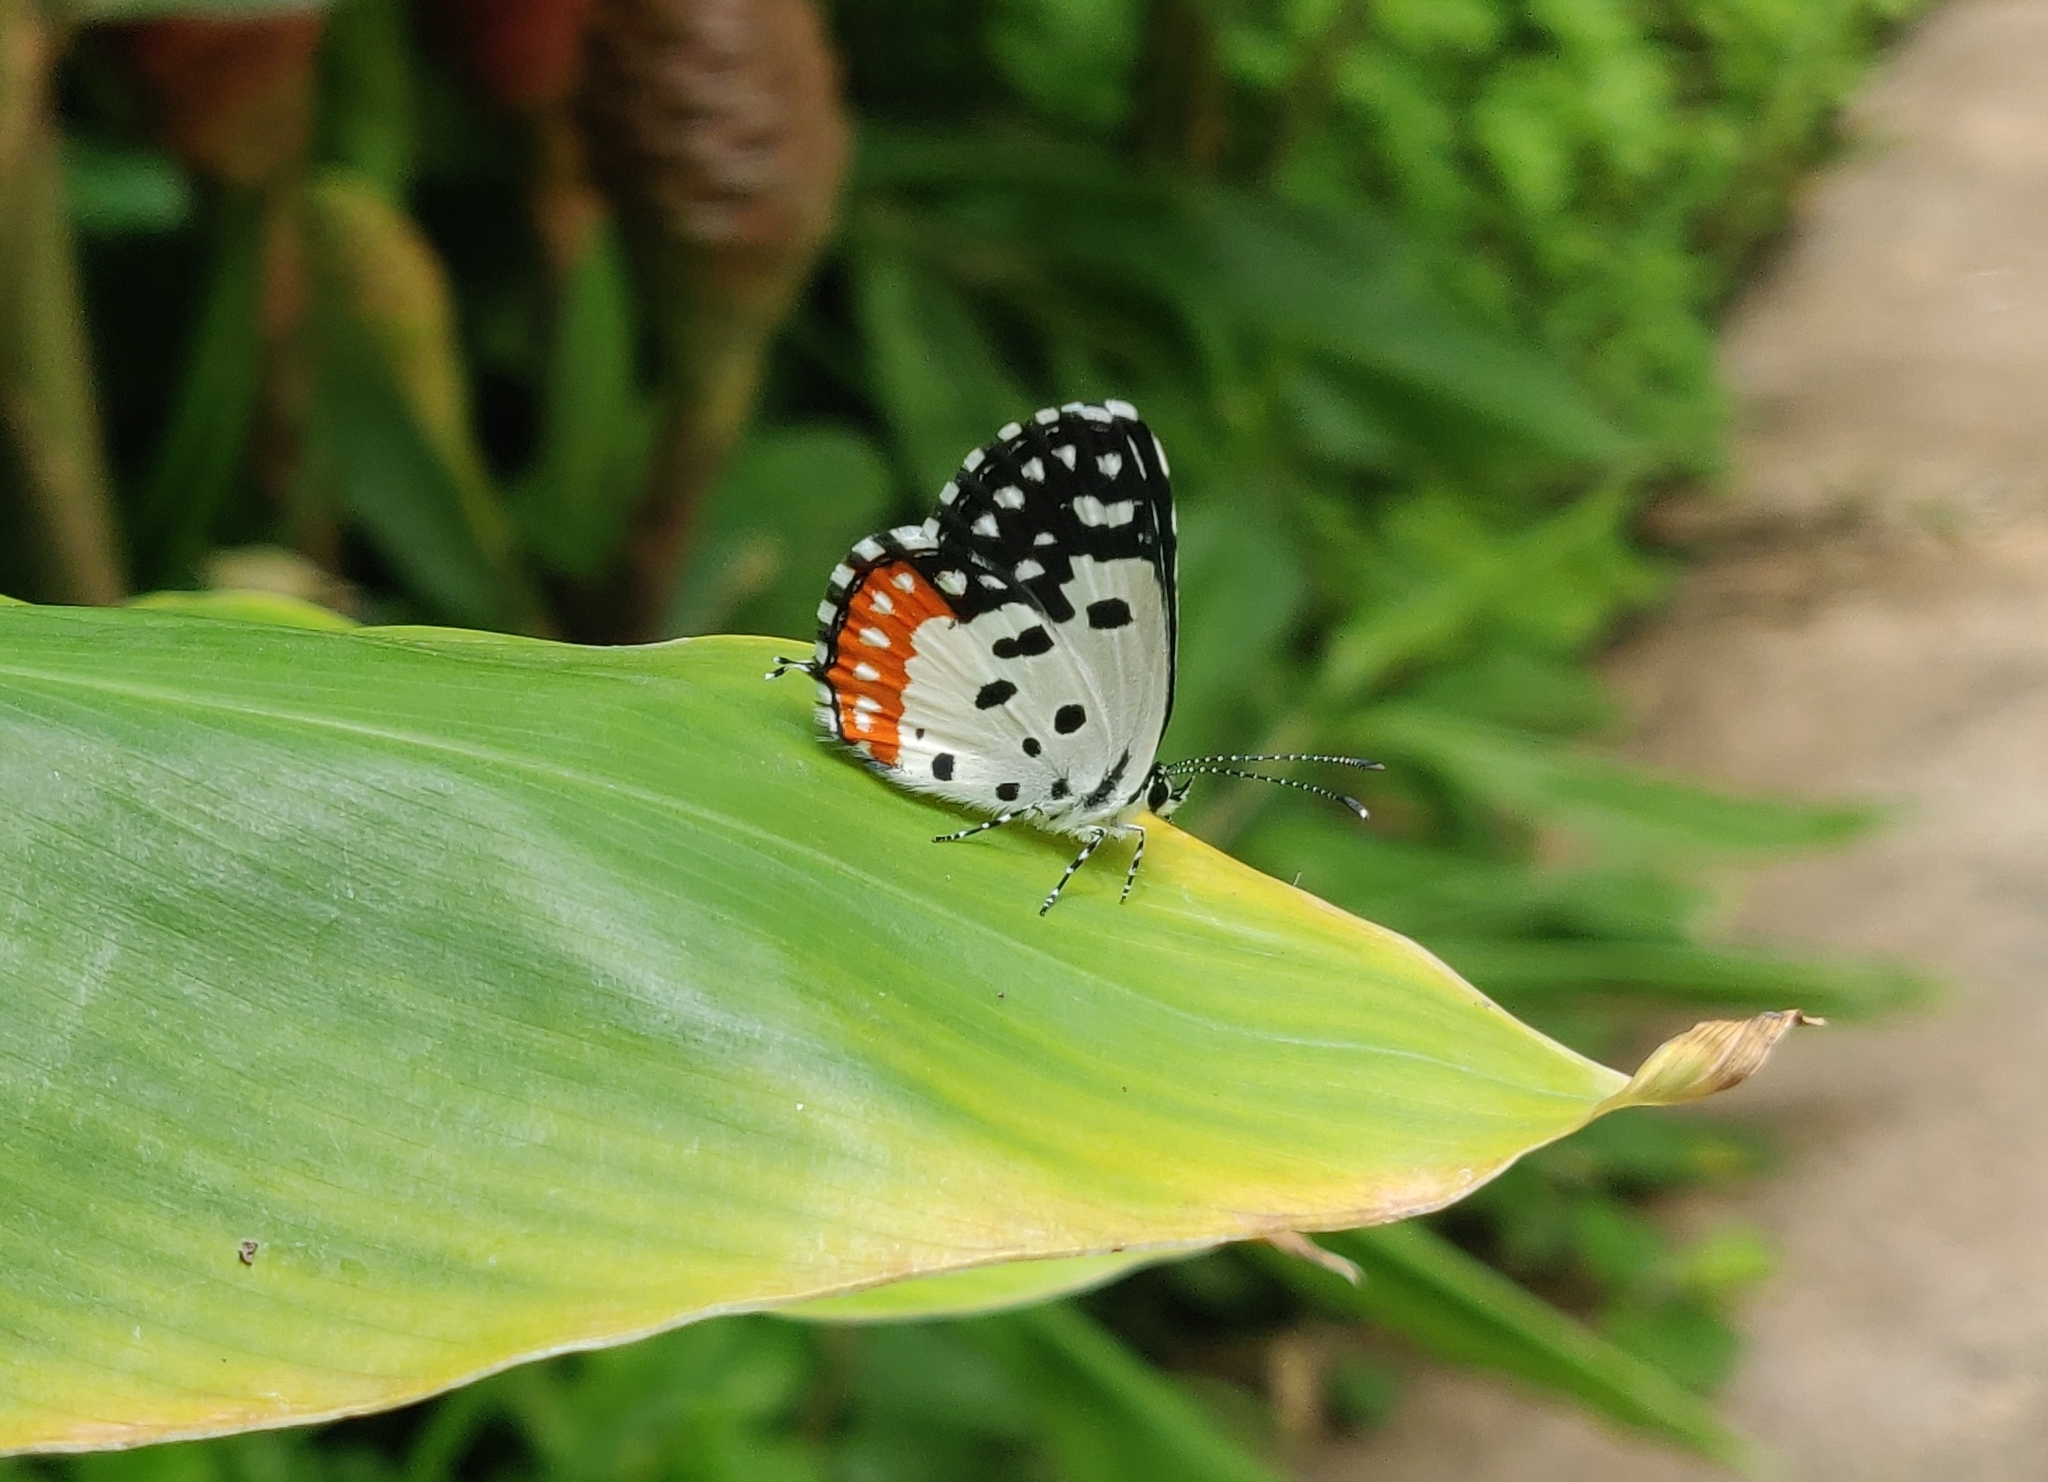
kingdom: Animalia
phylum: Arthropoda
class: Insecta
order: Lepidoptera
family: Lycaenidae
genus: Talicada
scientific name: Talicada nyseus
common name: Red pierrot
